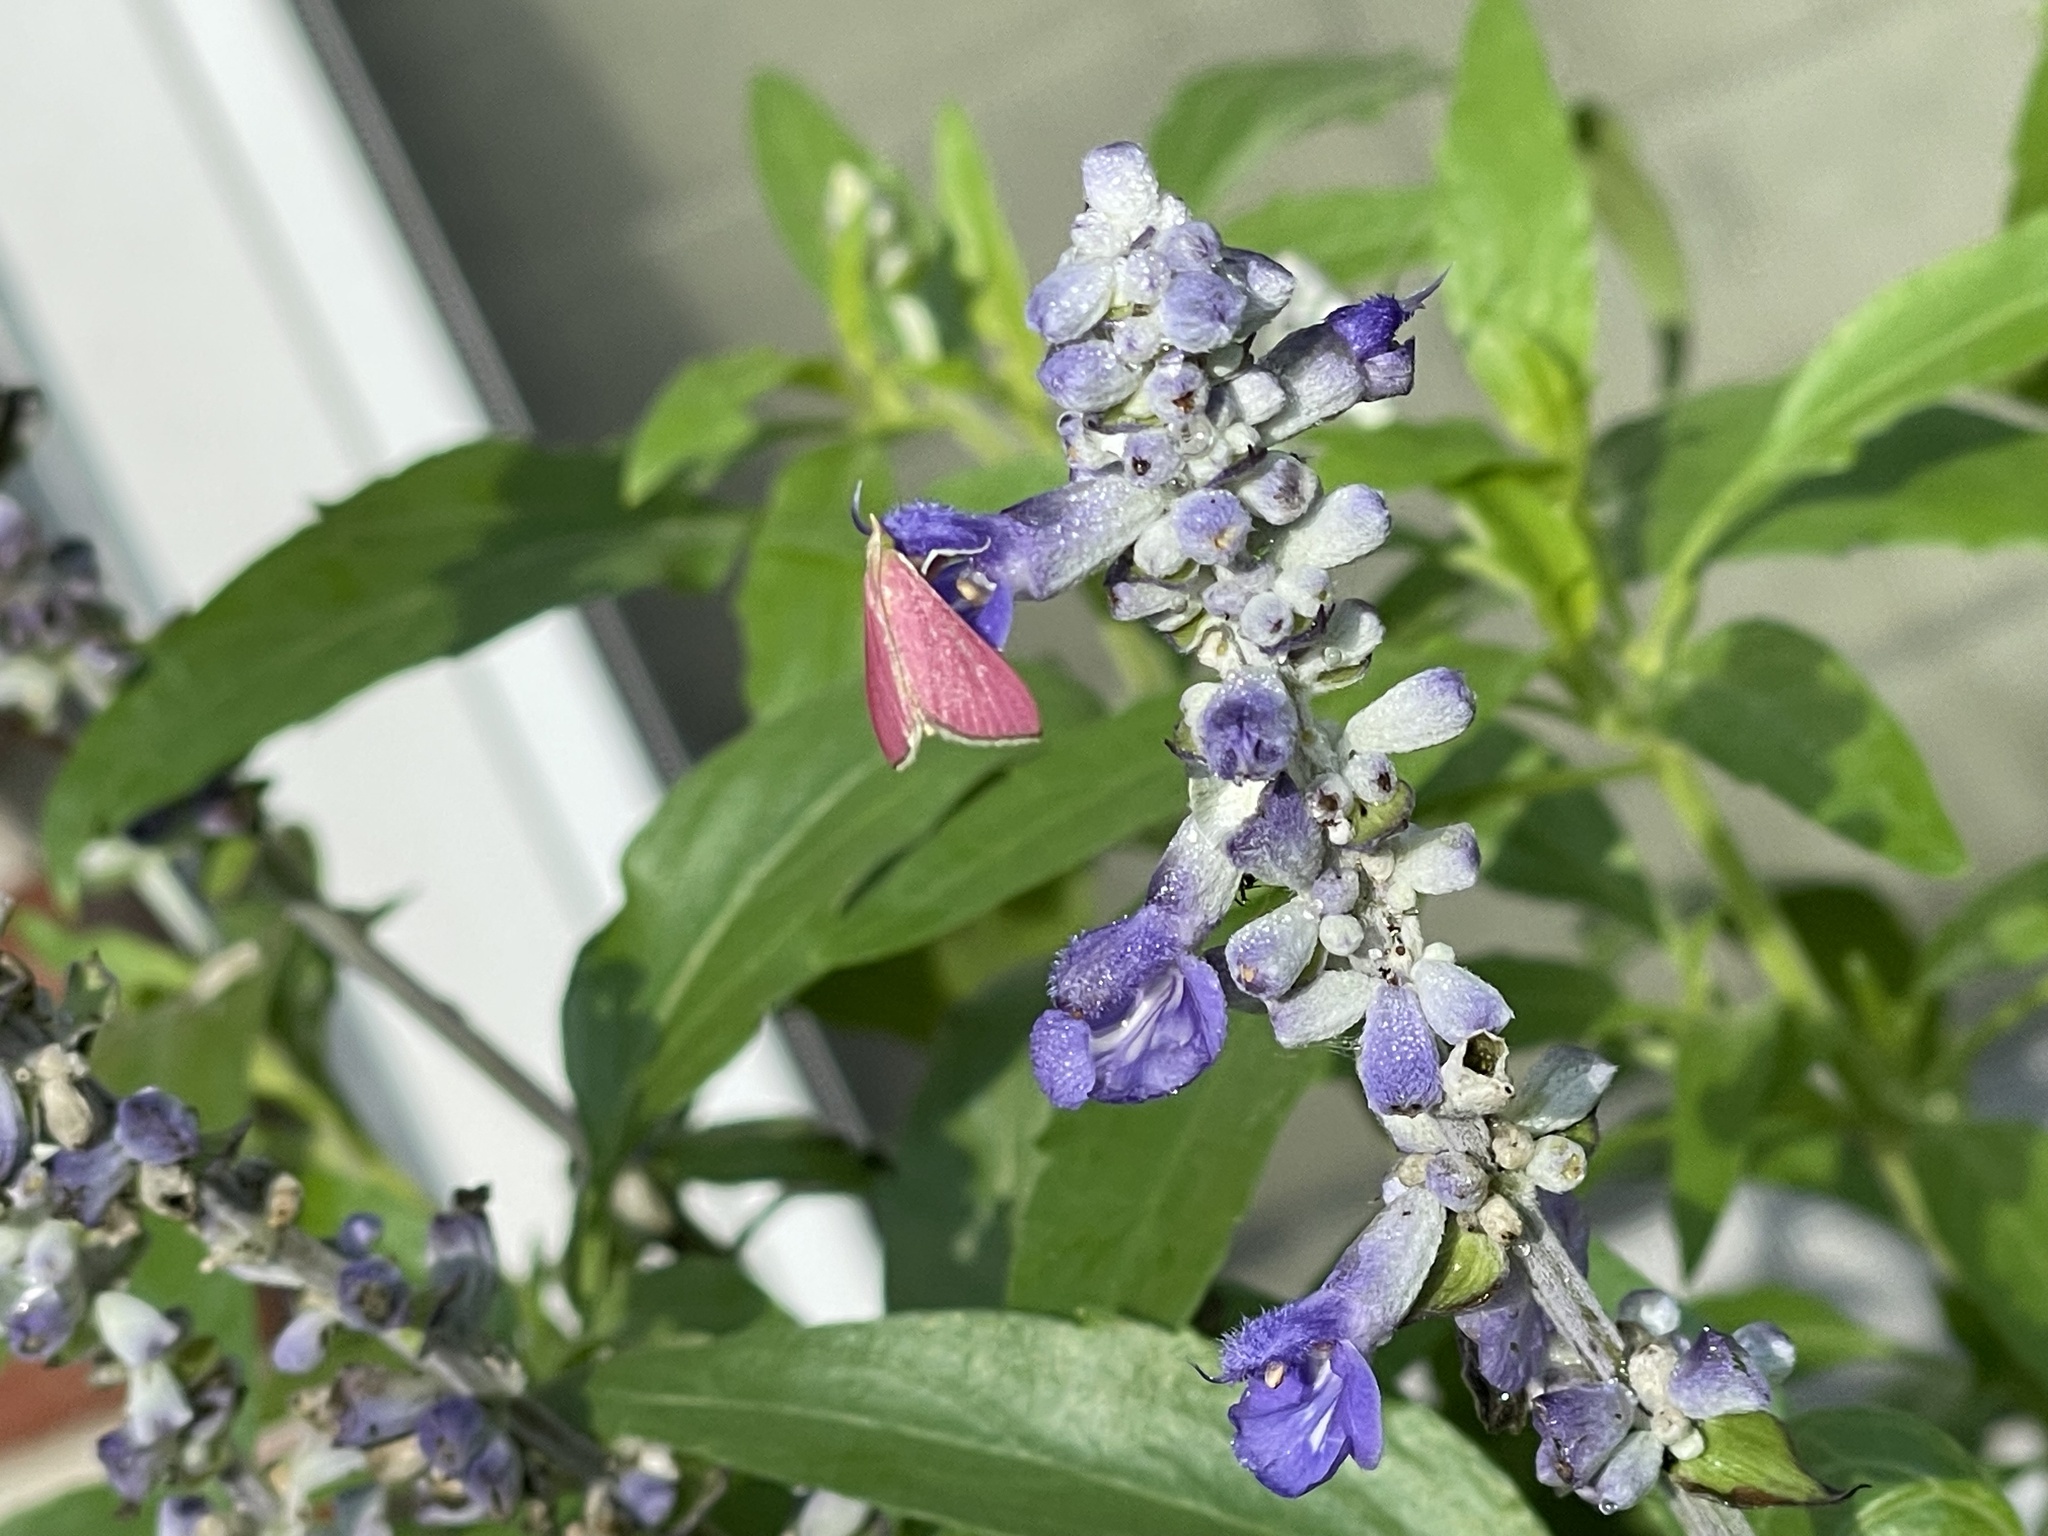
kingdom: Animalia
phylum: Arthropoda
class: Insecta
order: Lepidoptera
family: Crambidae
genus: Pyrausta
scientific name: Pyrausta inornatalis
